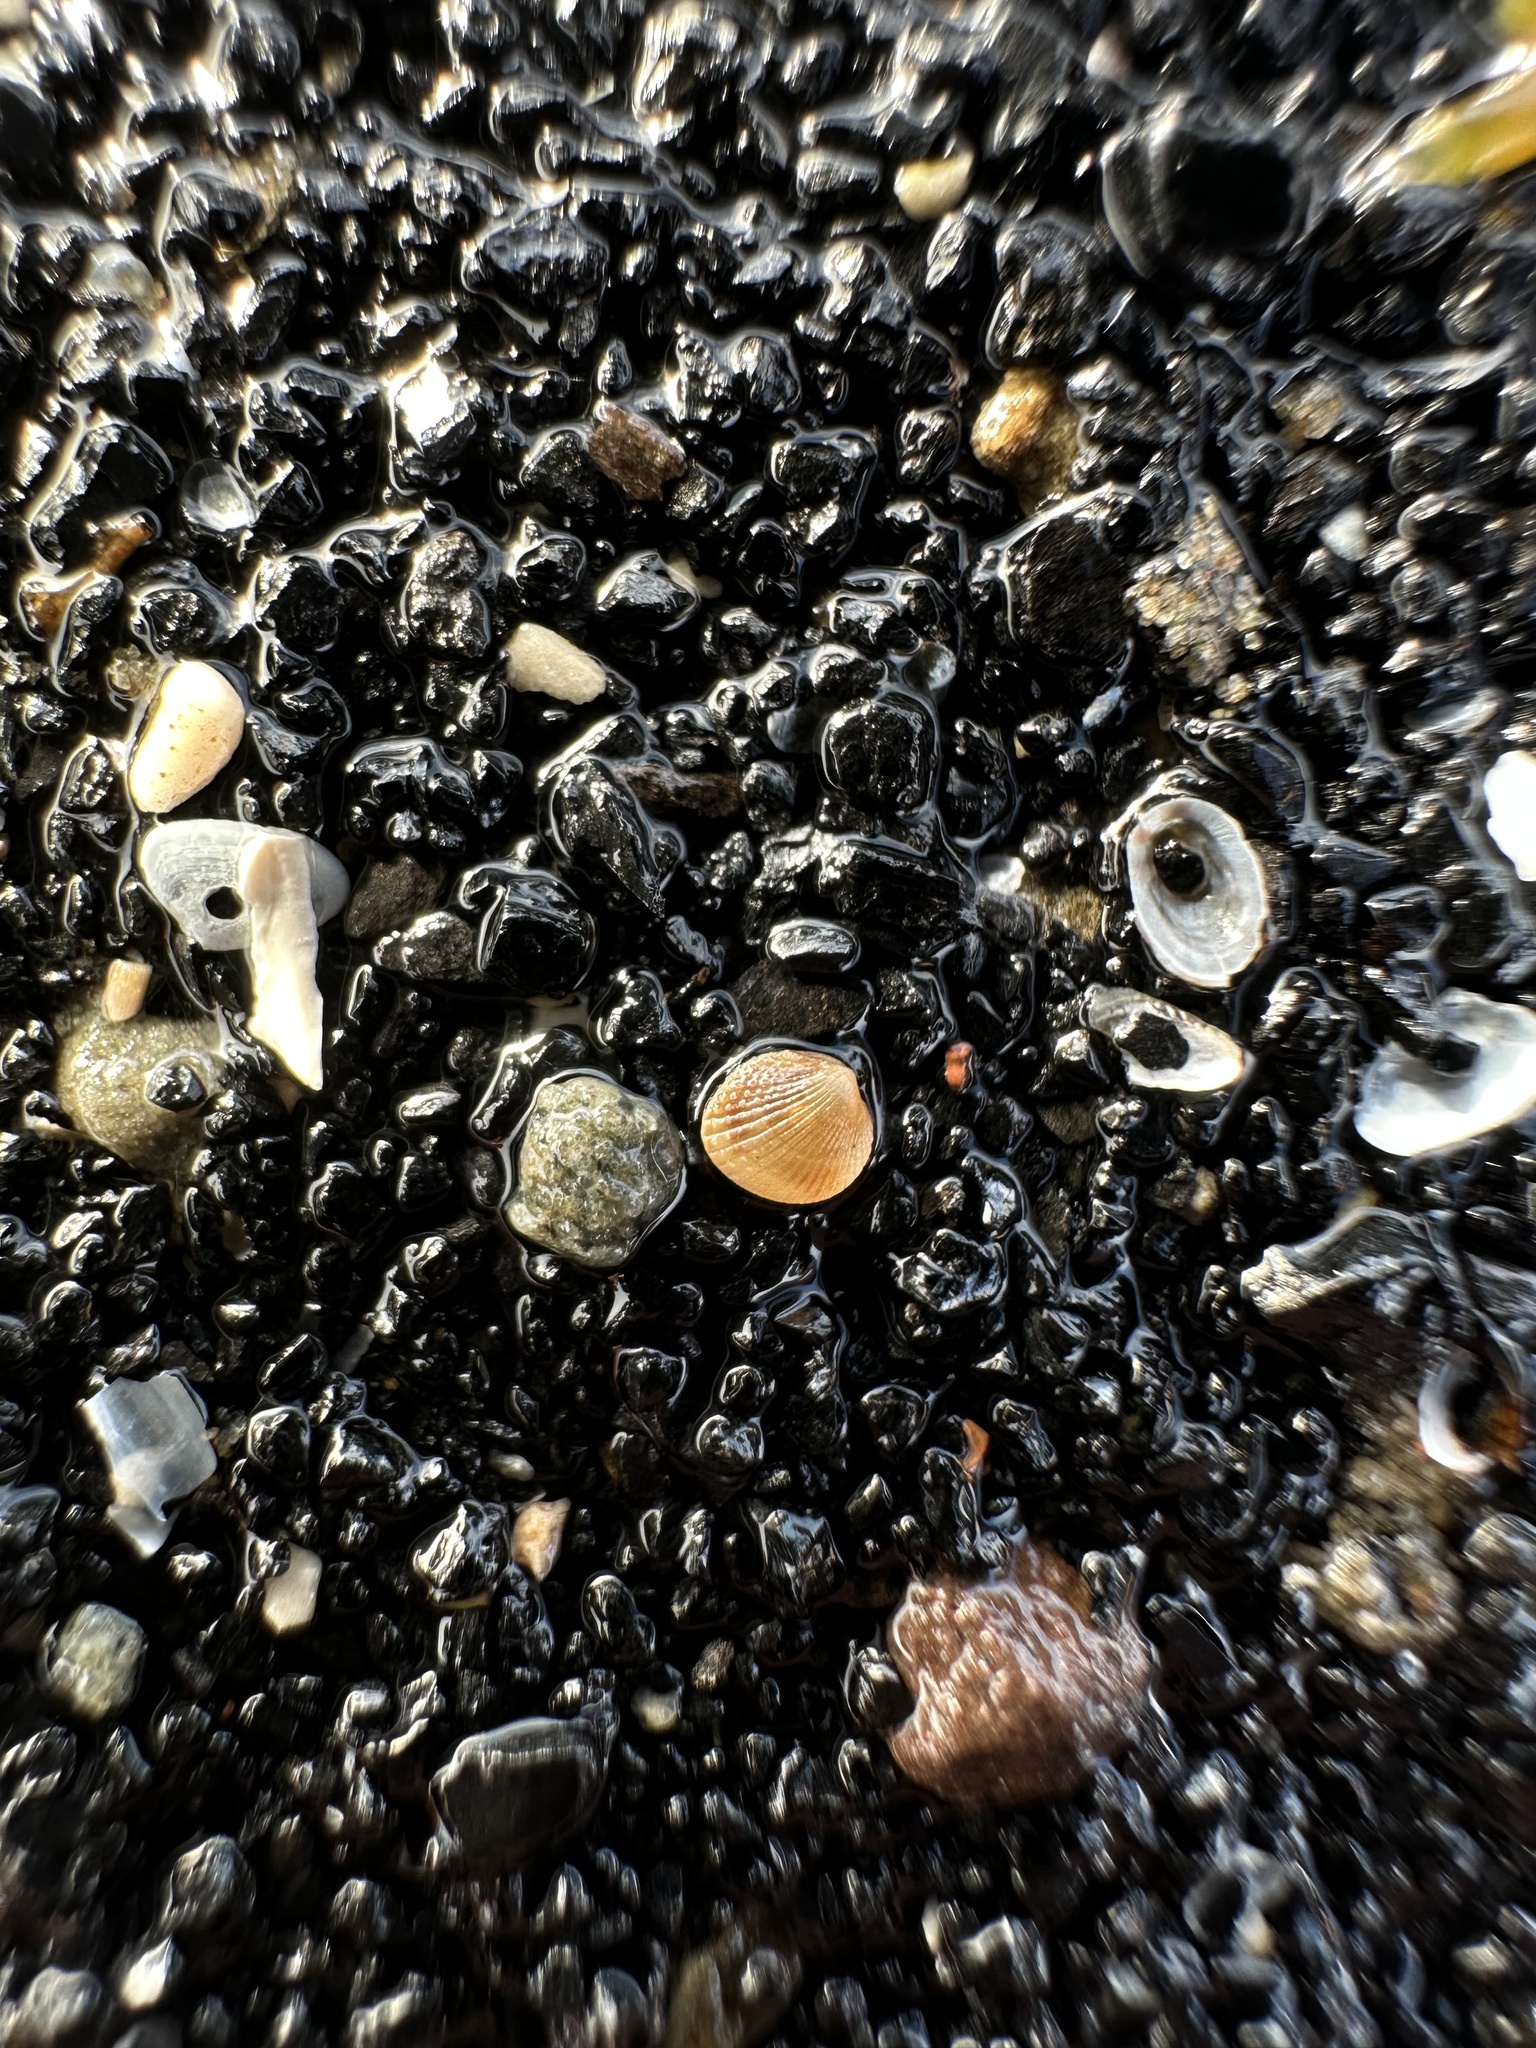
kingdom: Animalia
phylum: Mollusca
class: Bivalvia
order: Cardiida
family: Cardiidae
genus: Parvicardium
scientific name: Parvicardium pinnulatum
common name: Oval cockle
